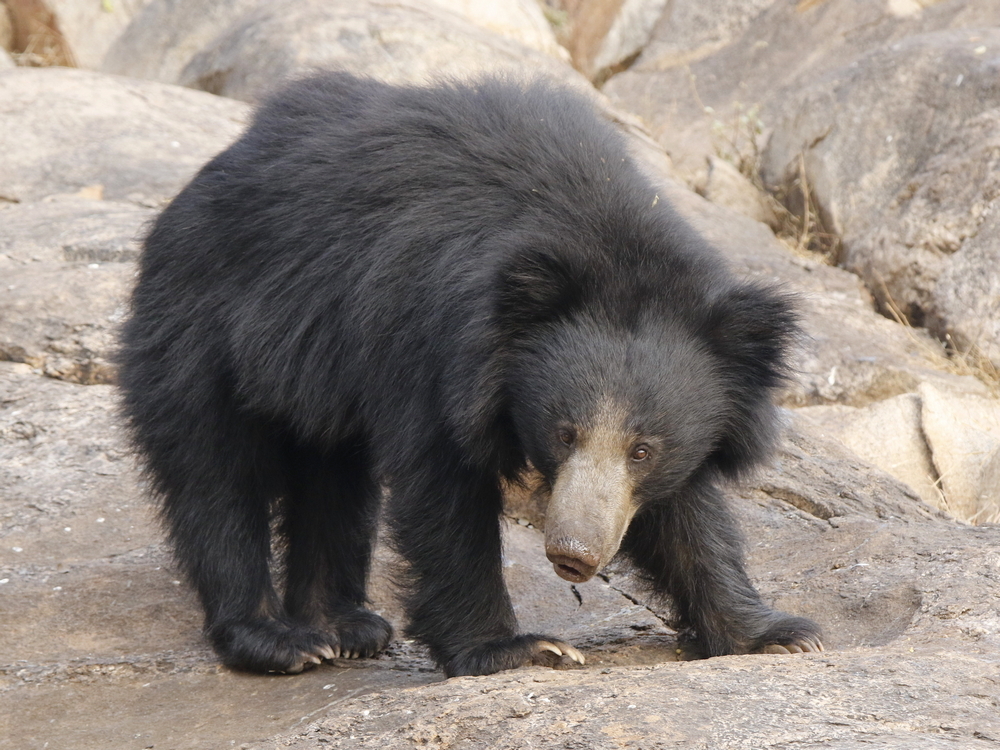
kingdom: Animalia
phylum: Chordata
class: Mammalia
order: Carnivora
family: Ursidae
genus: Melursus
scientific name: Melursus ursinus
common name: Sloth bear
